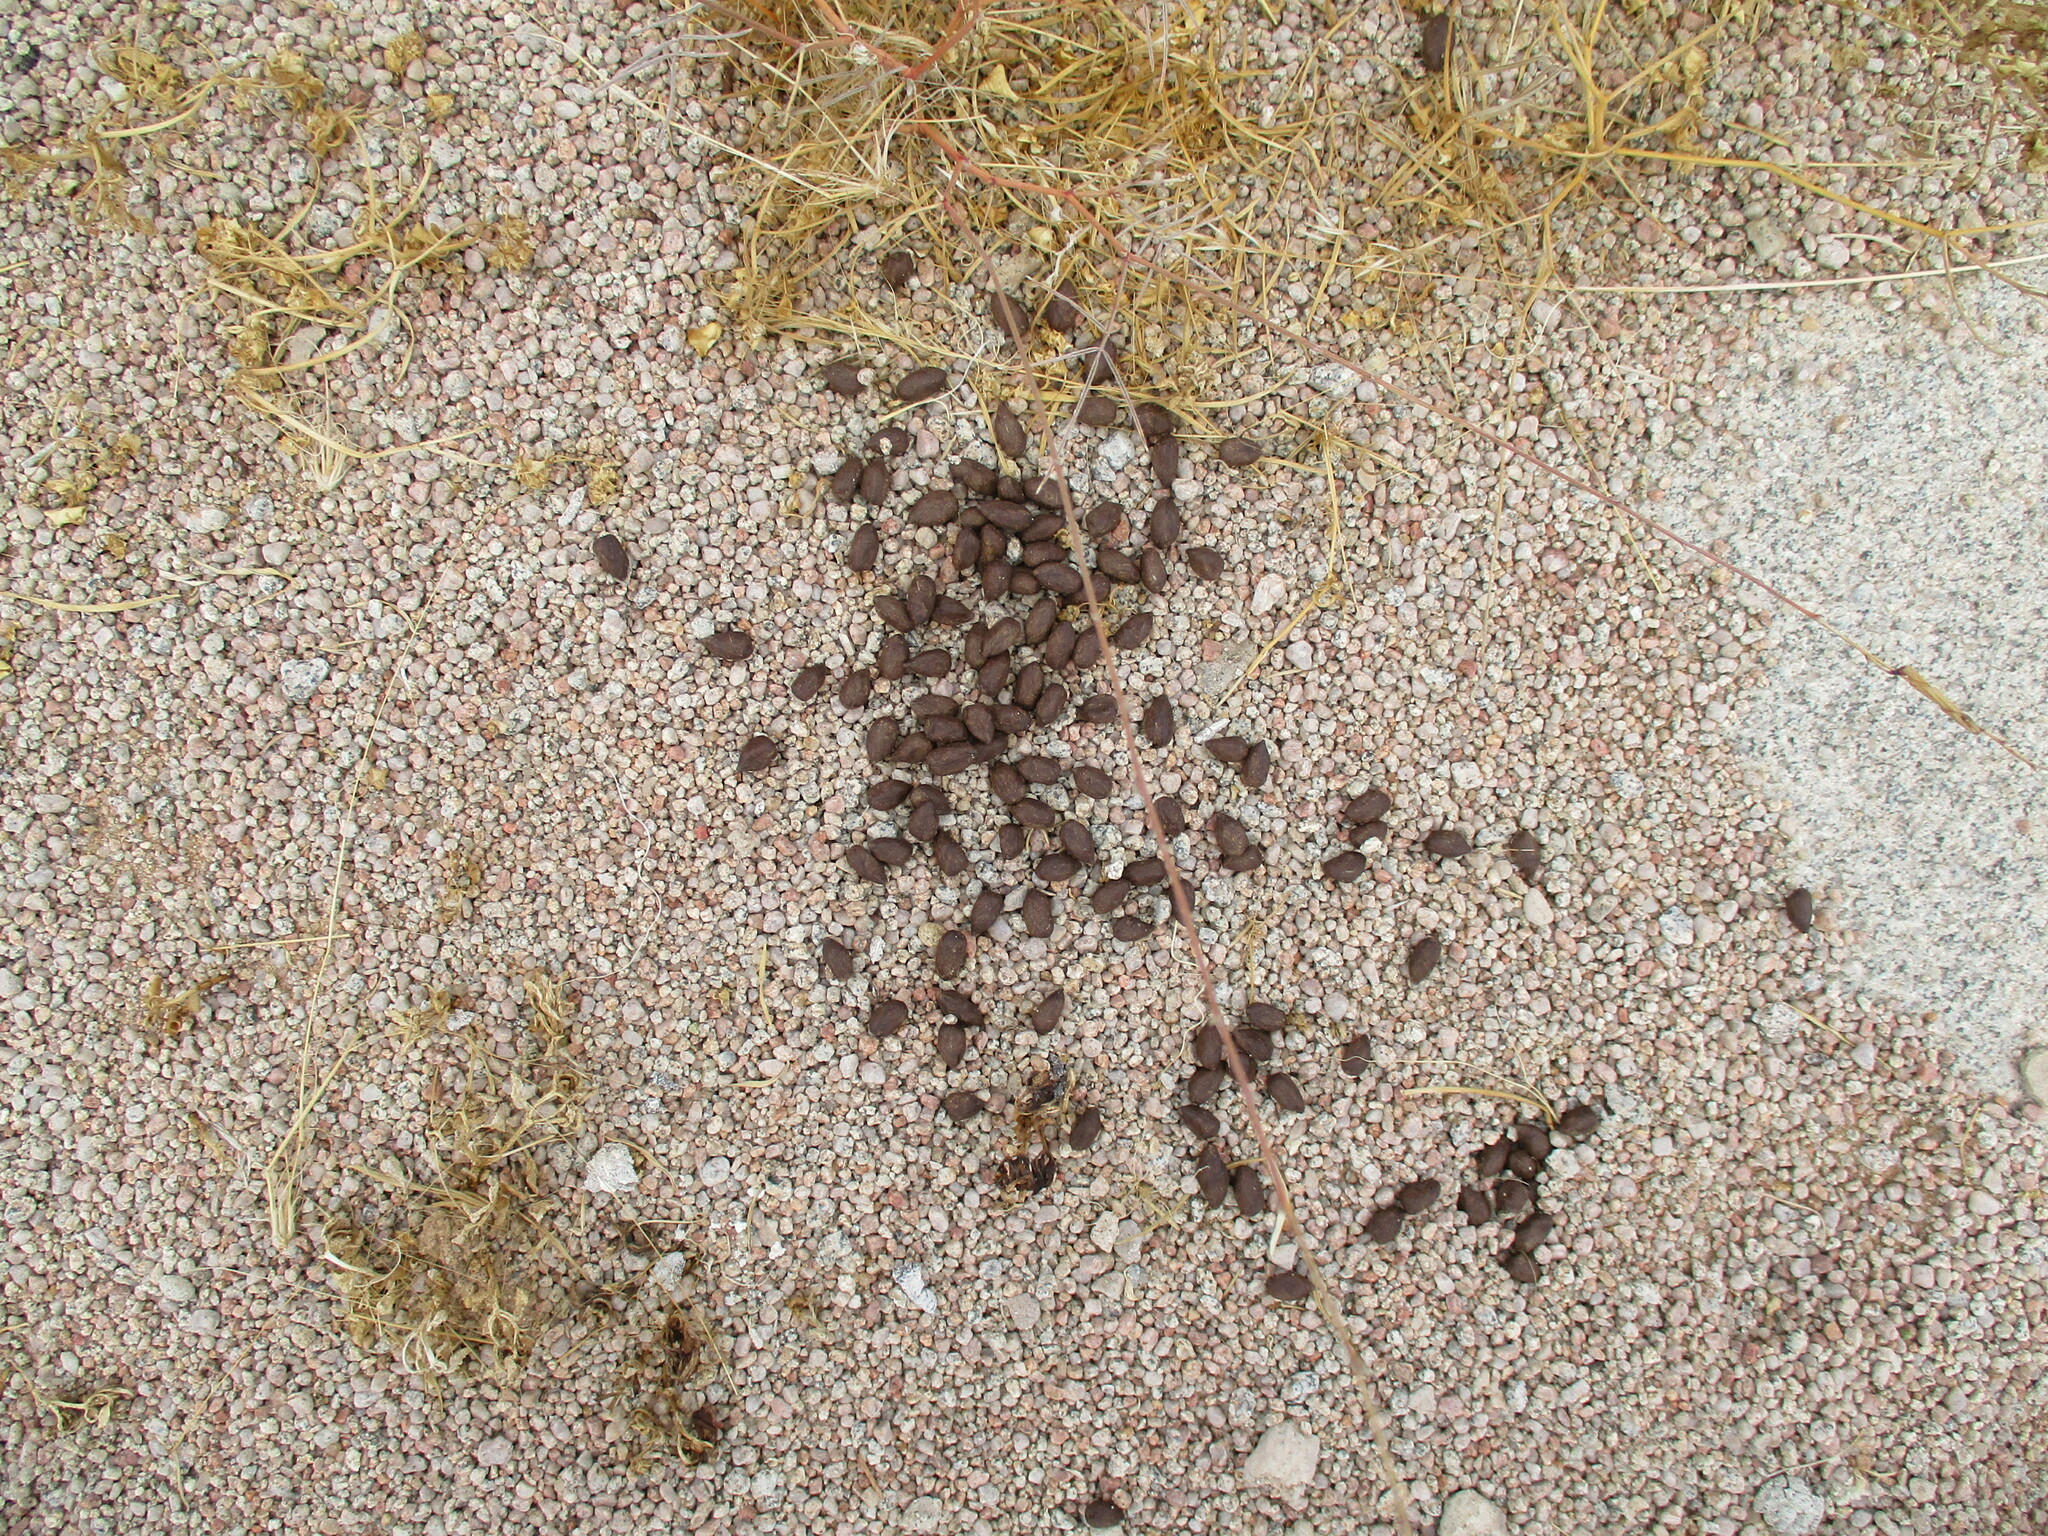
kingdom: Animalia
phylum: Chordata
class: Mammalia
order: Artiodactyla
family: Bovidae
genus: Antidorcas
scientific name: Antidorcas marsupialis
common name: Springbok
